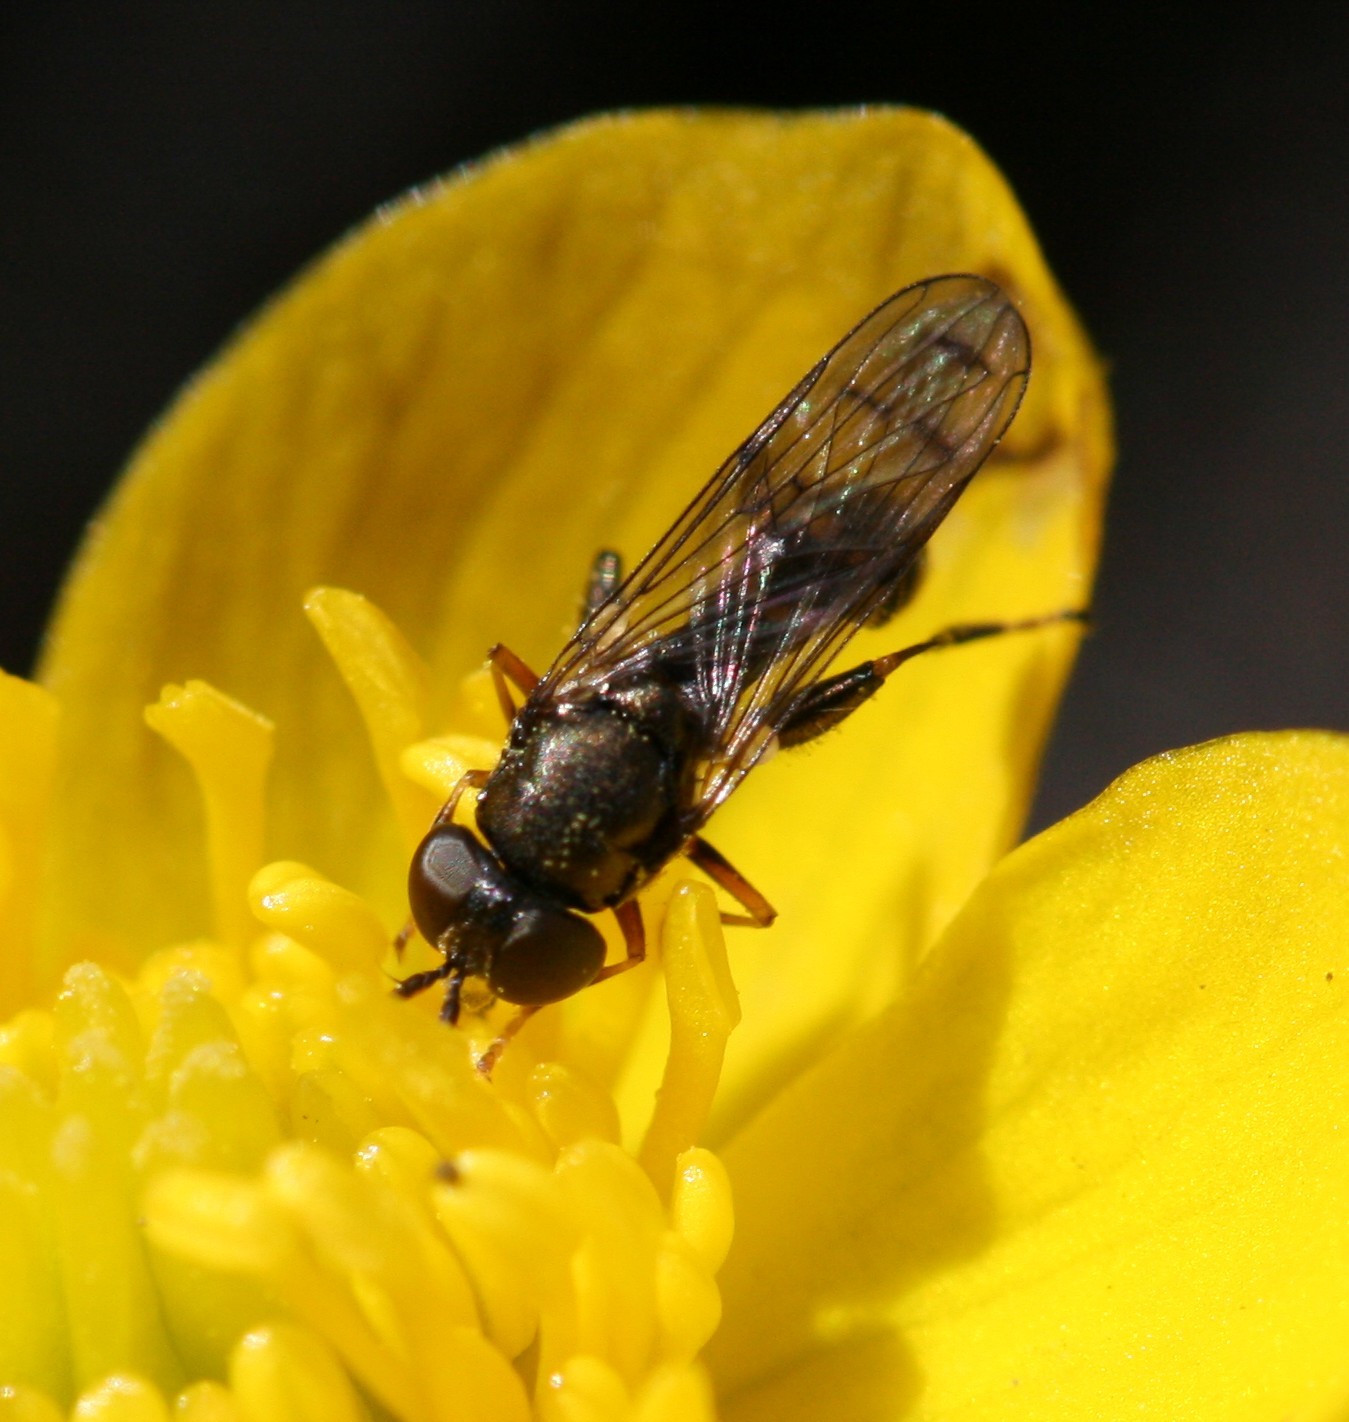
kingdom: Animalia
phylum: Arthropoda
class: Insecta
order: Diptera
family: Syrphidae
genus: Neoascia
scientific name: Neoascia
